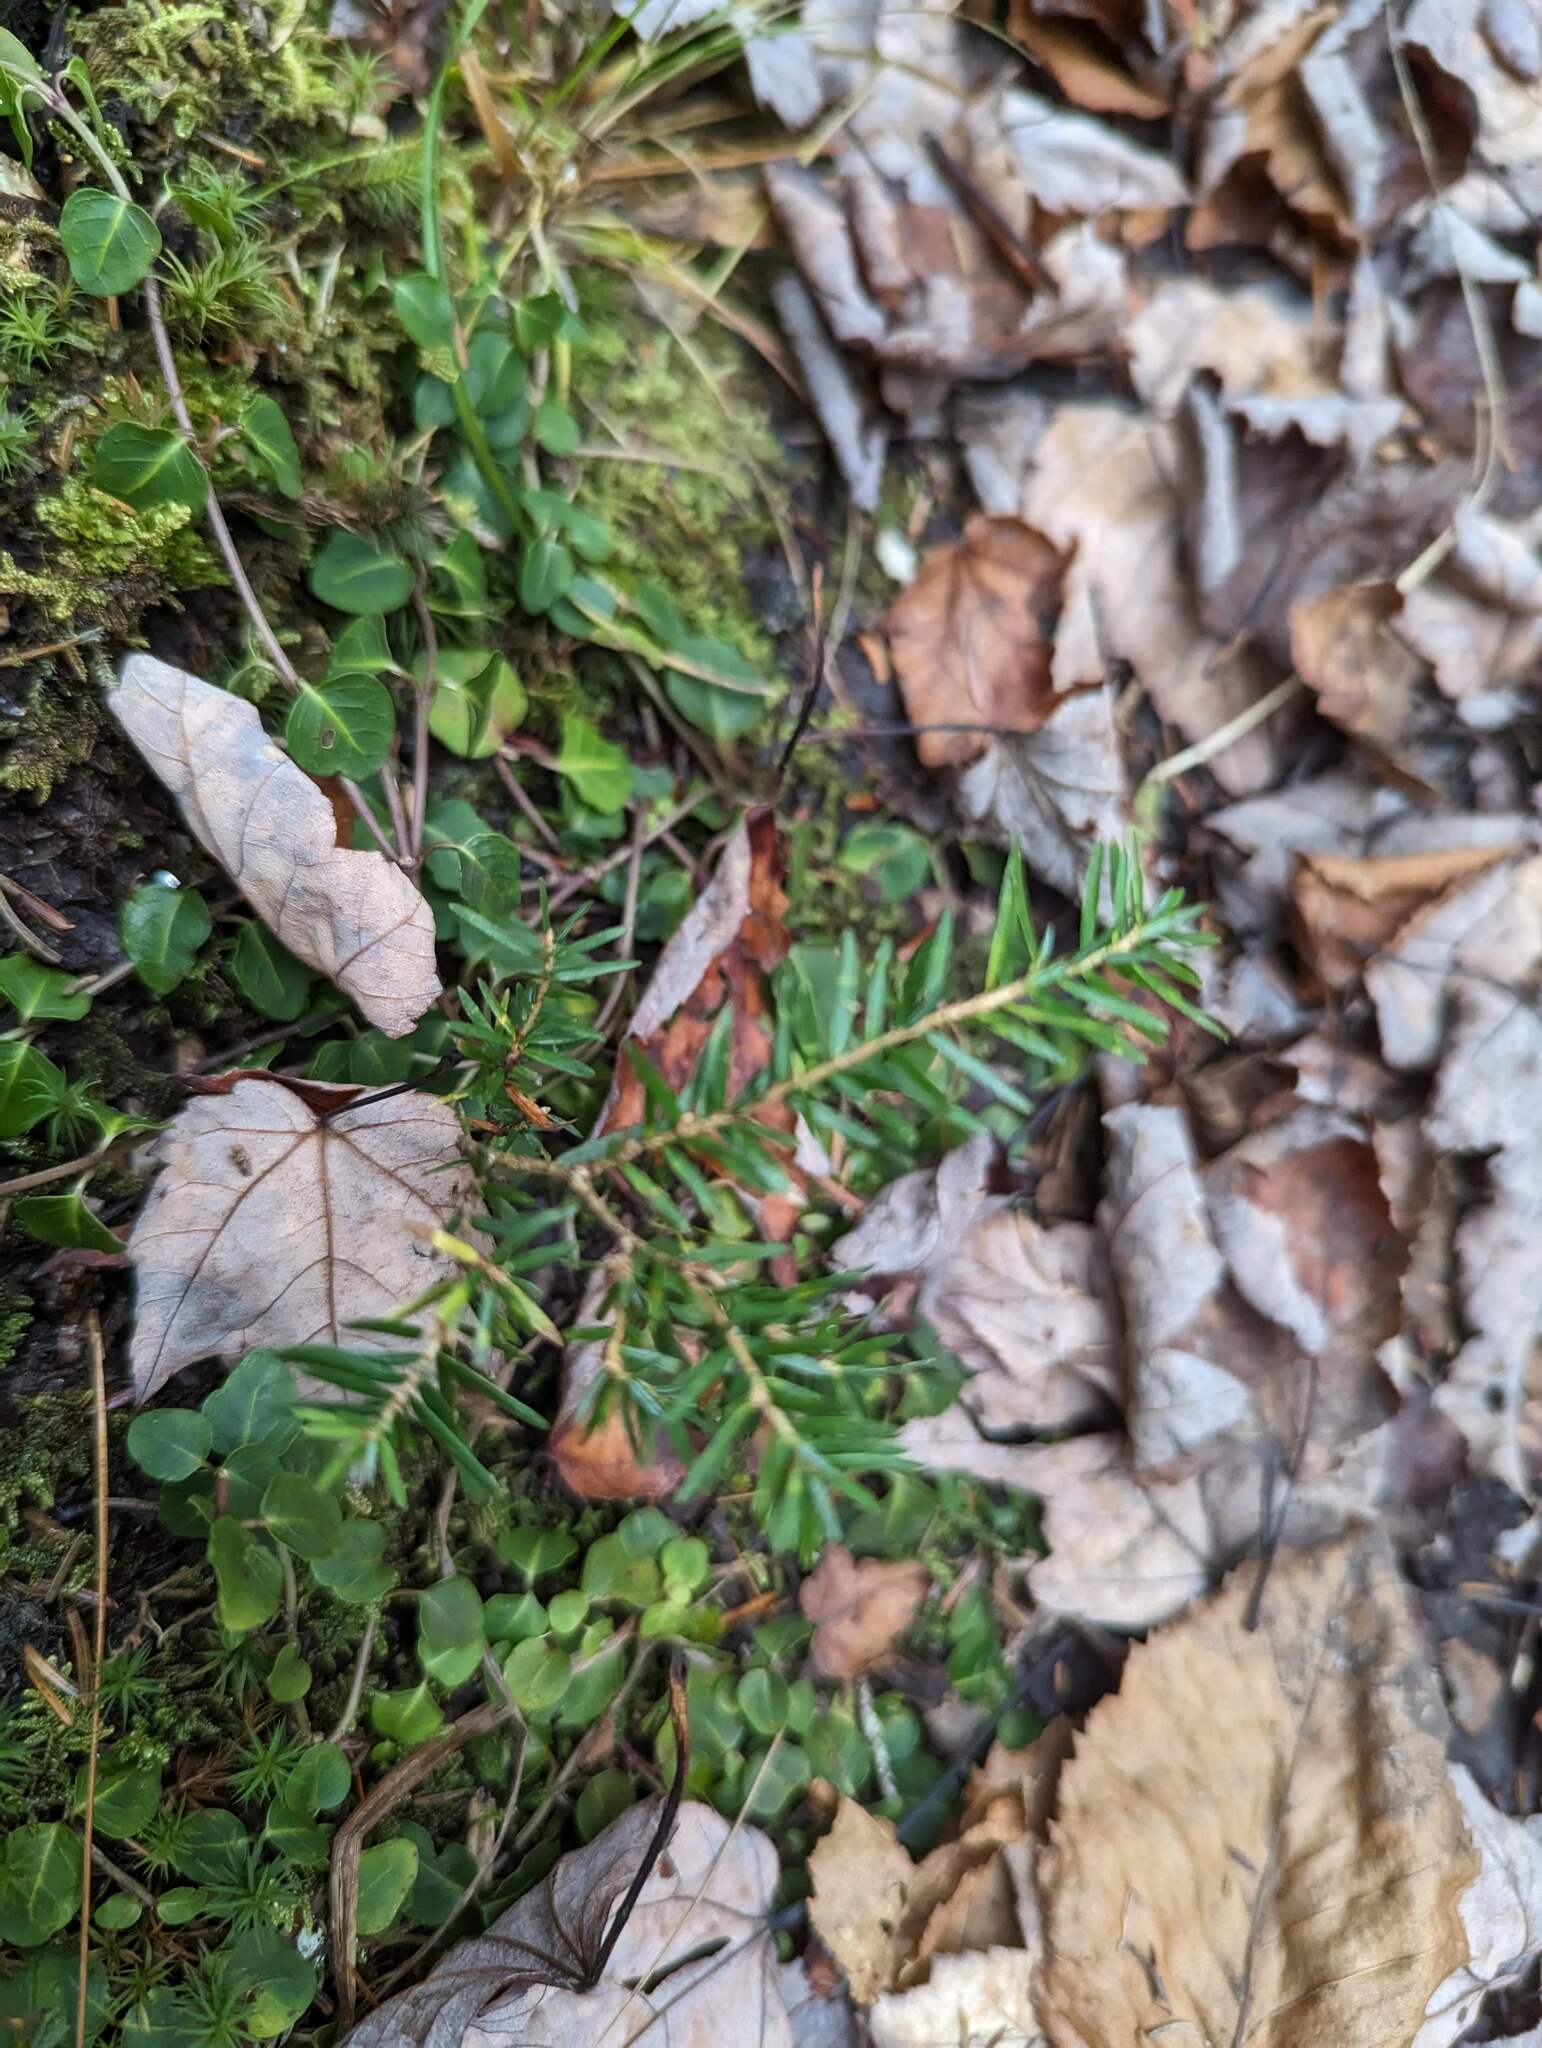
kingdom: Plantae
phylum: Tracheophyta
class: Pinopsida
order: Pinales
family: Pinaceae
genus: Tsuga
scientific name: Tsuga canadensis
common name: Eastern hemlock
